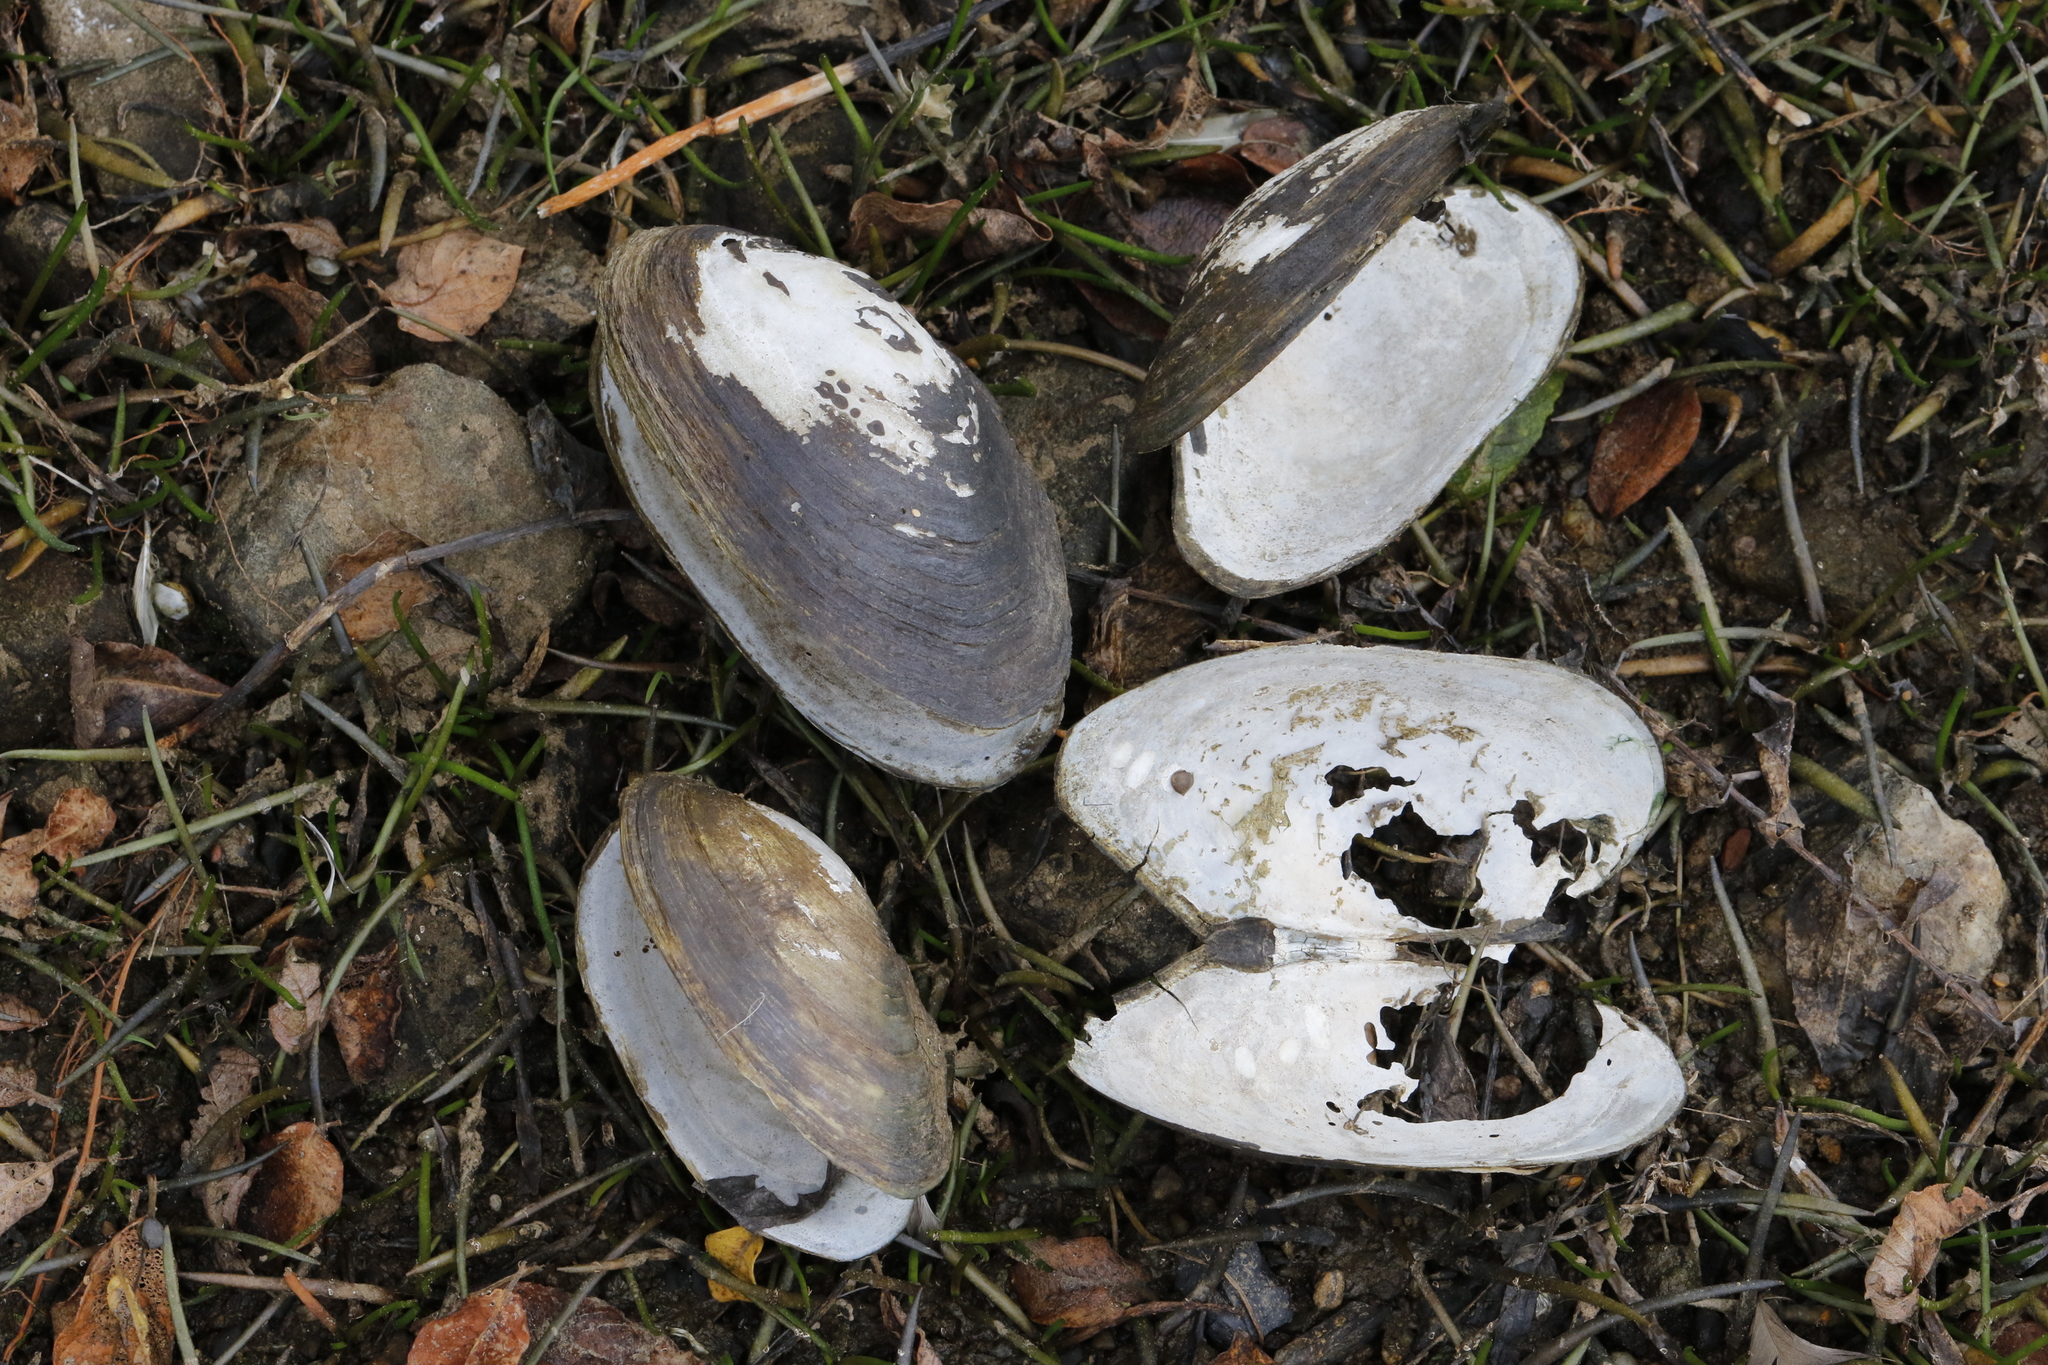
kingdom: Animalia
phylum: Mollusca
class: Bivalvia
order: Unionida
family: Unionidae
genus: Anodonta
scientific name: Anodonta anatina
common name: Duck mussel
